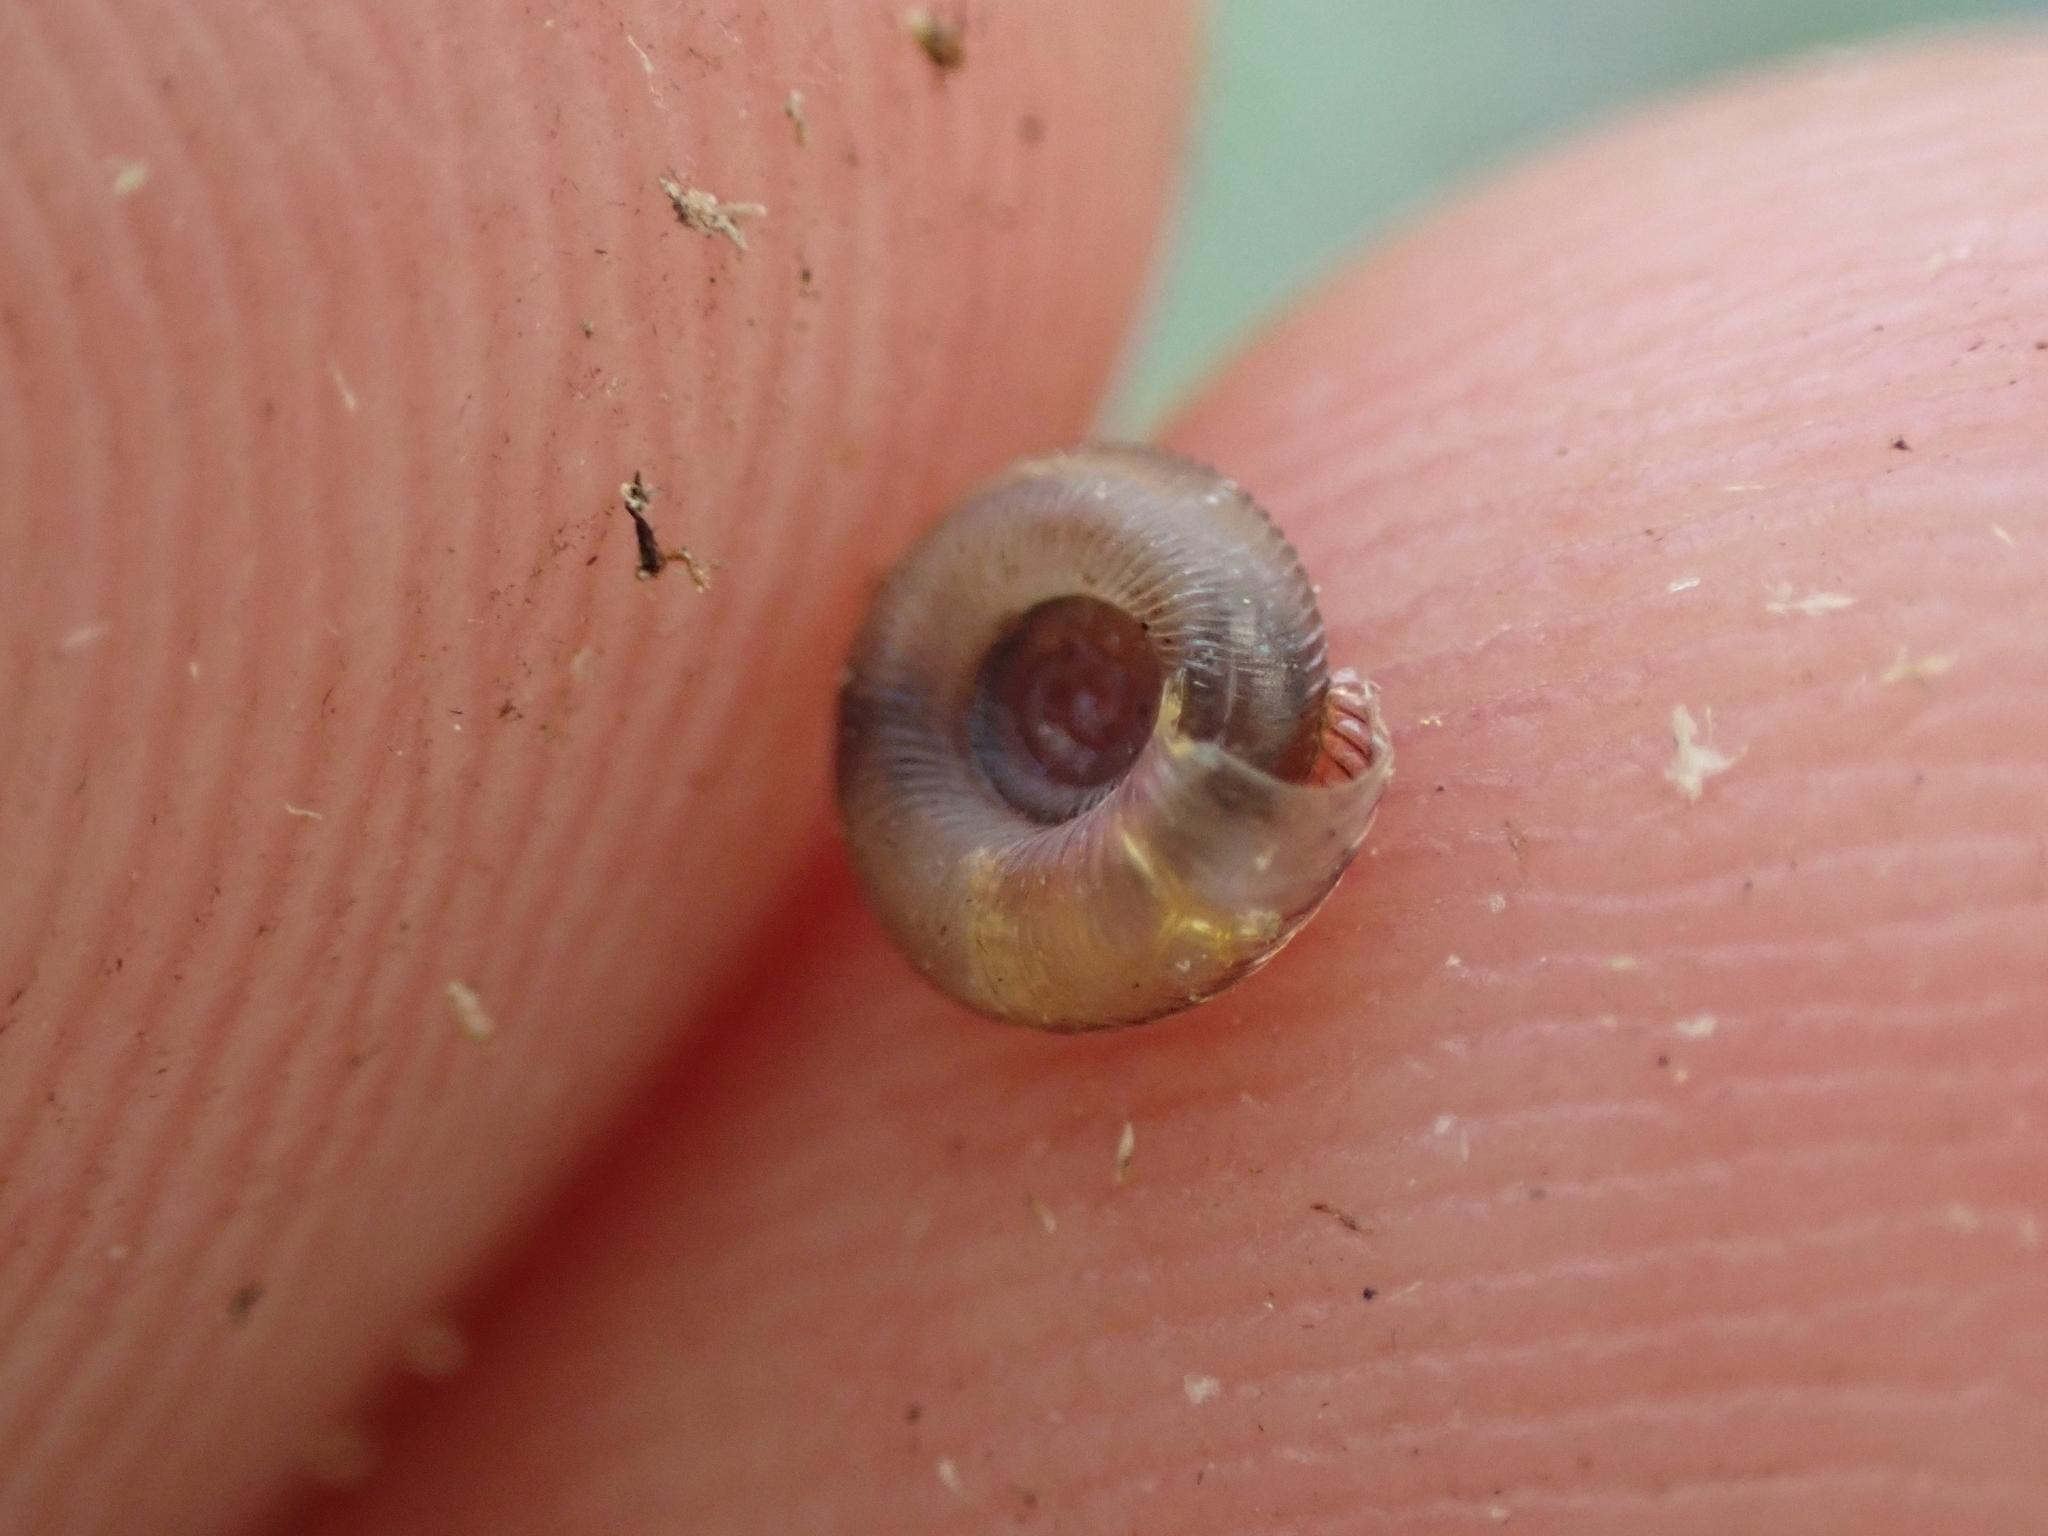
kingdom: Animalia
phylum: Mollusca
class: Gastropoda
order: Stylommatophora
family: Discidae
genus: Discus
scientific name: Discus patulus
